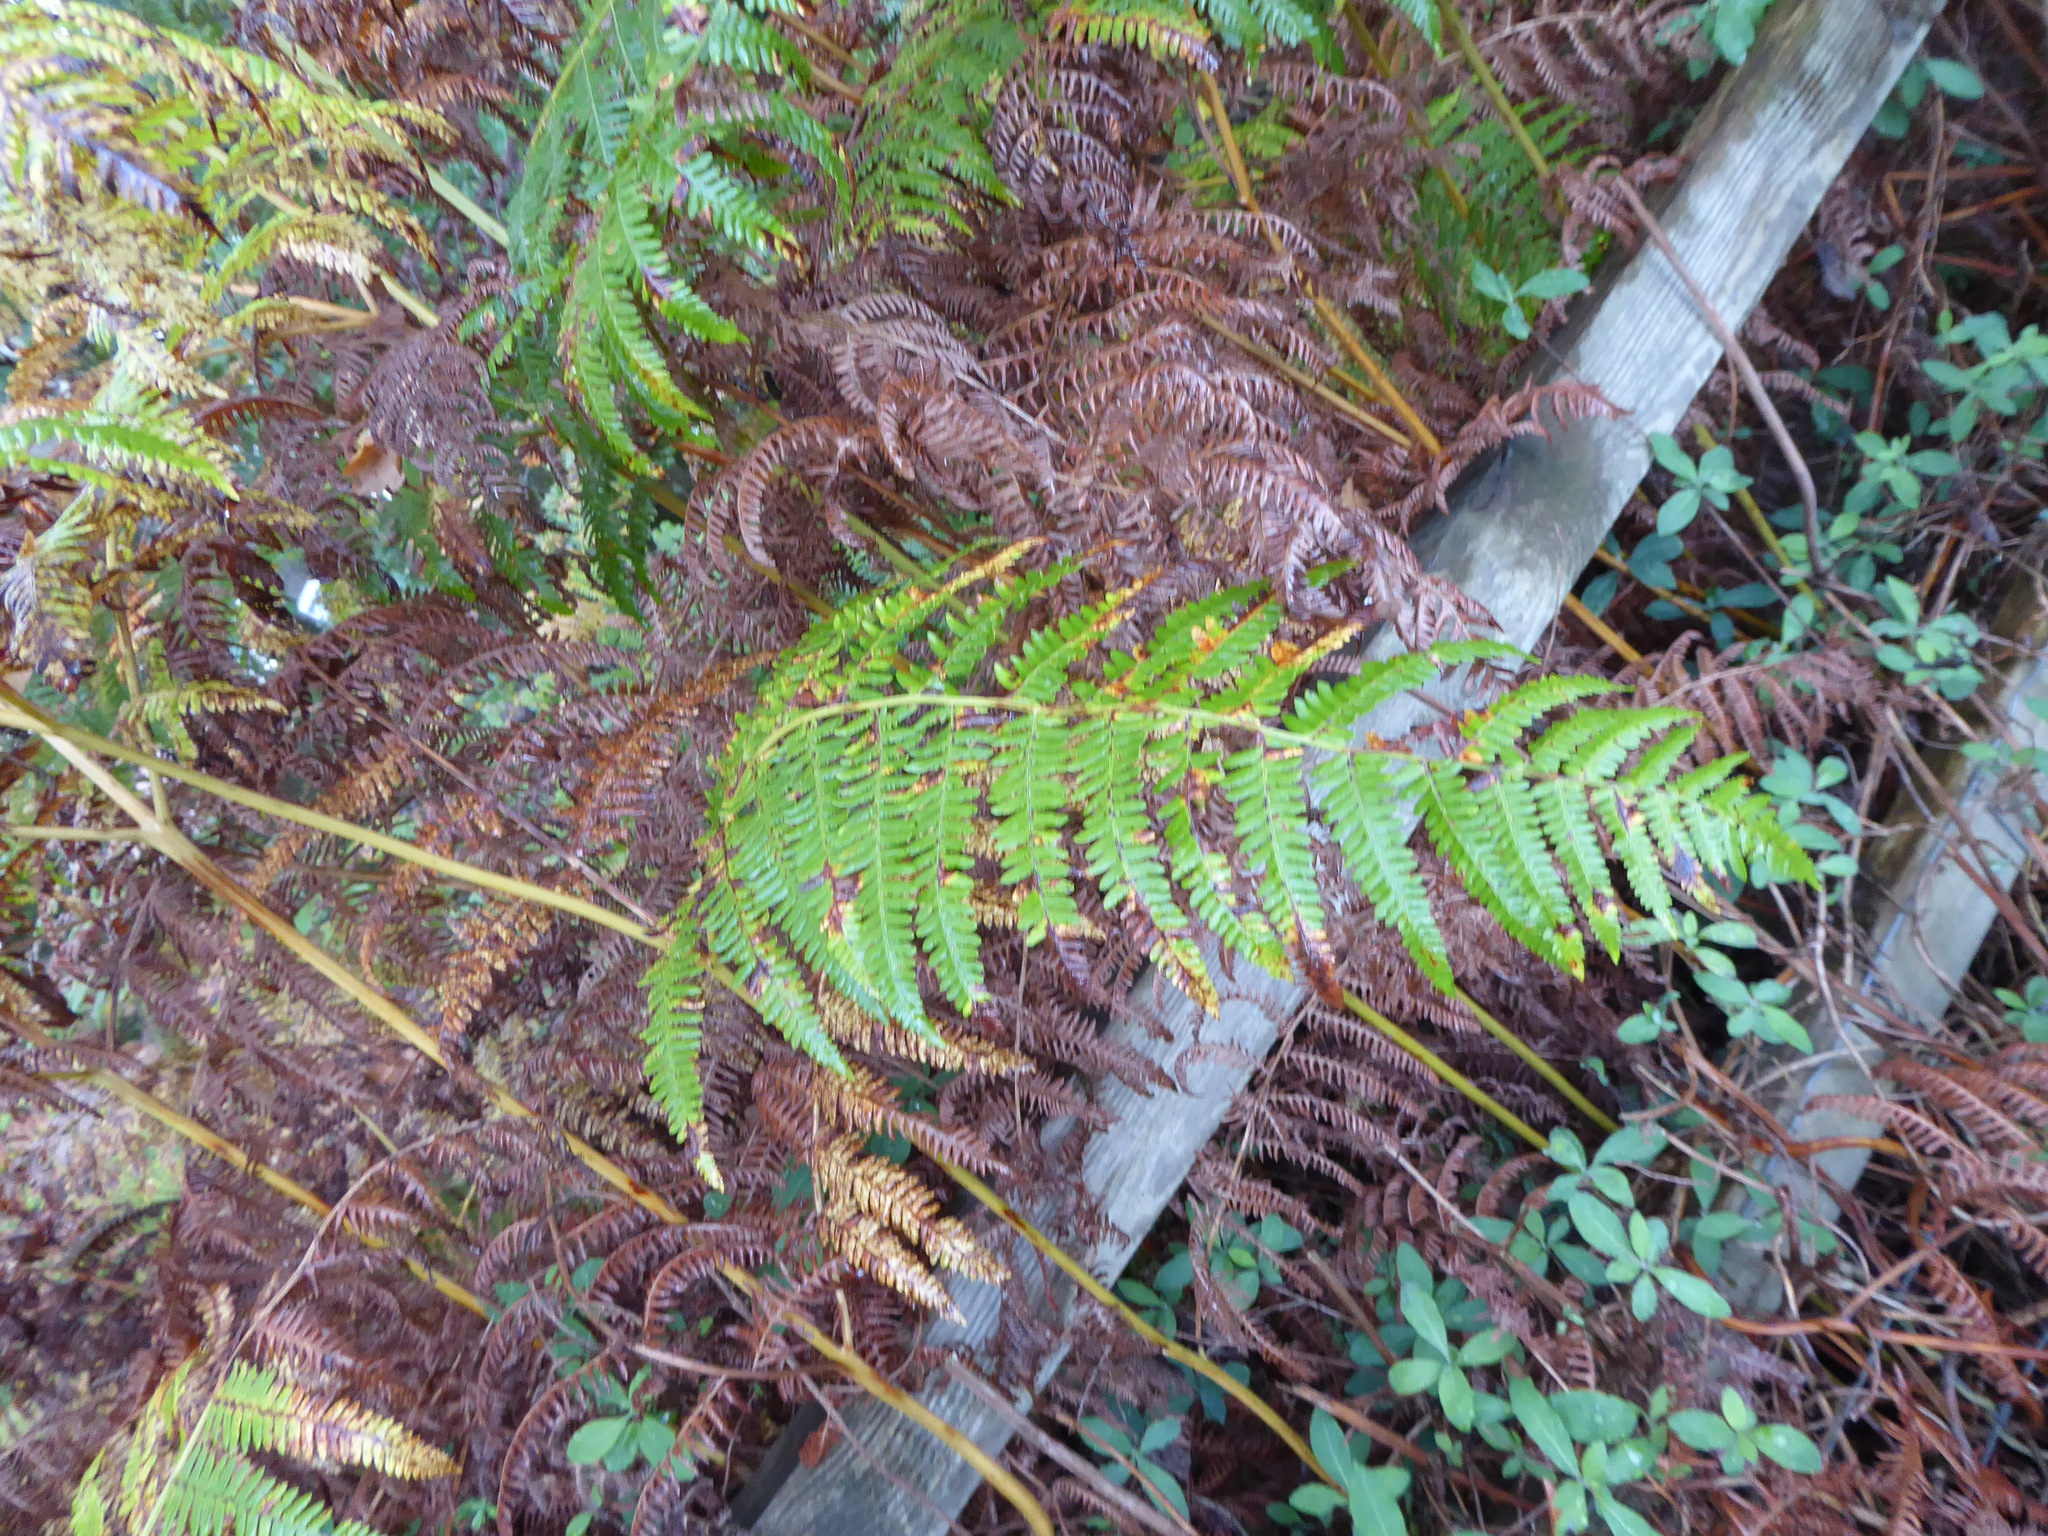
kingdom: Plantae
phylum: Tracheophyta
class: Polypodiopsida
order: Polypodiales
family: Dennstaedtiaceae
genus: Pteridium
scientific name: Pteridium aquilinum
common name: Bracken
